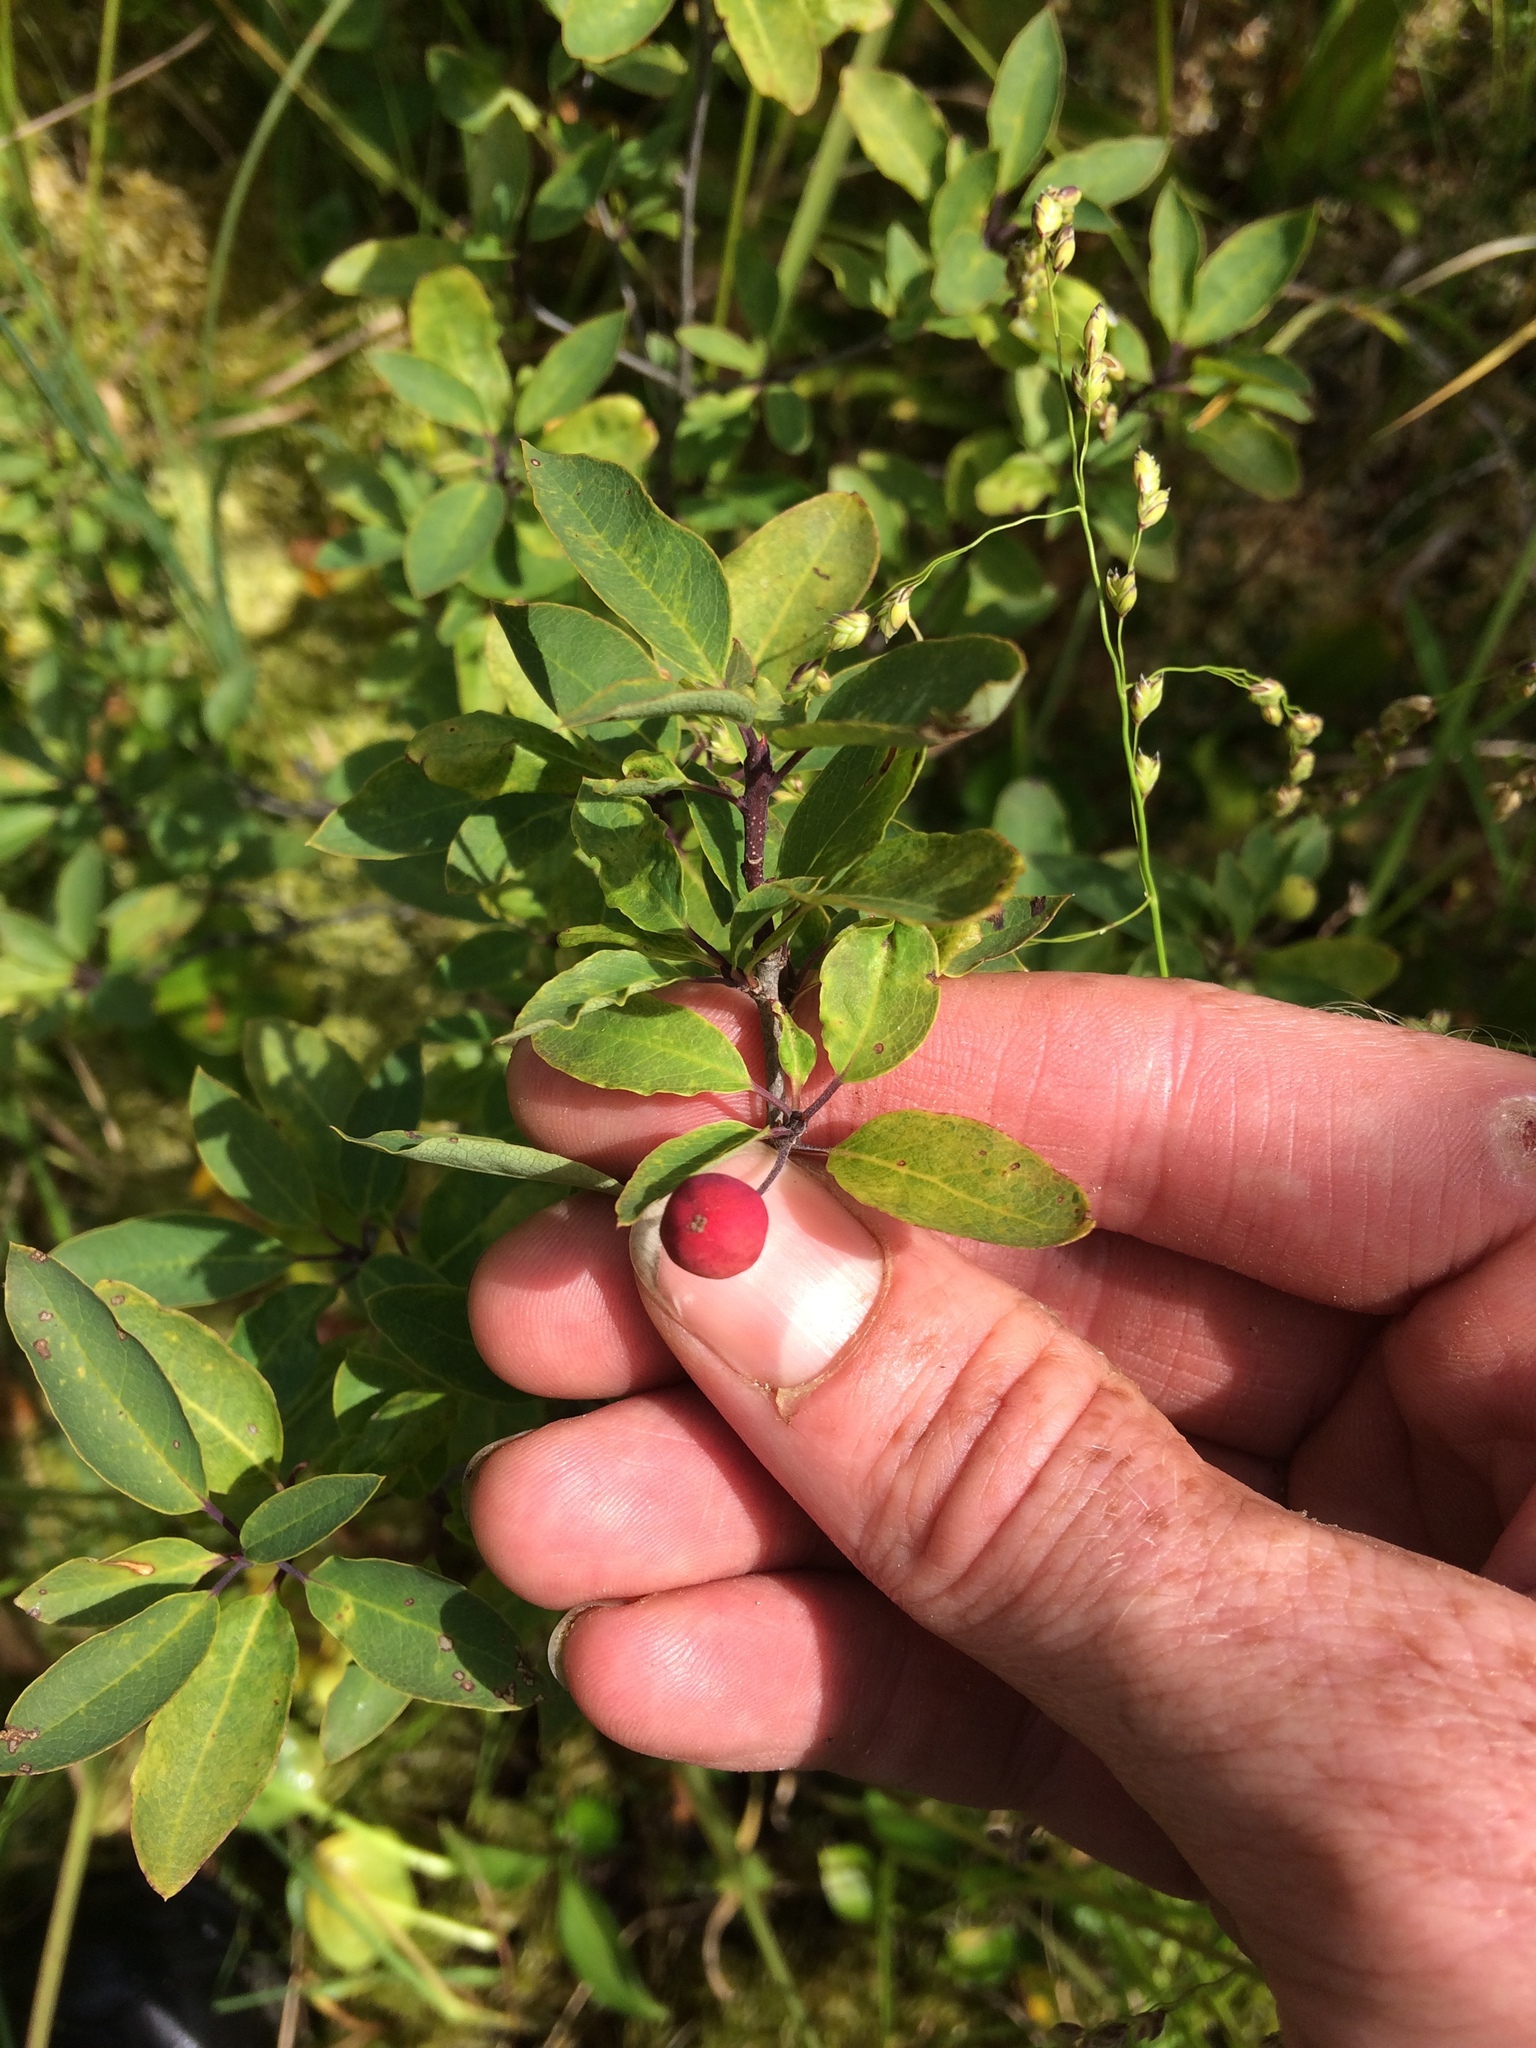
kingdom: Plantae
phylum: Tracheophyta
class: Magnoliopsida
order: Aquifoliales
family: Aquifoliaceae
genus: Ilex
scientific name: Ilex mucronata
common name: Catberry
